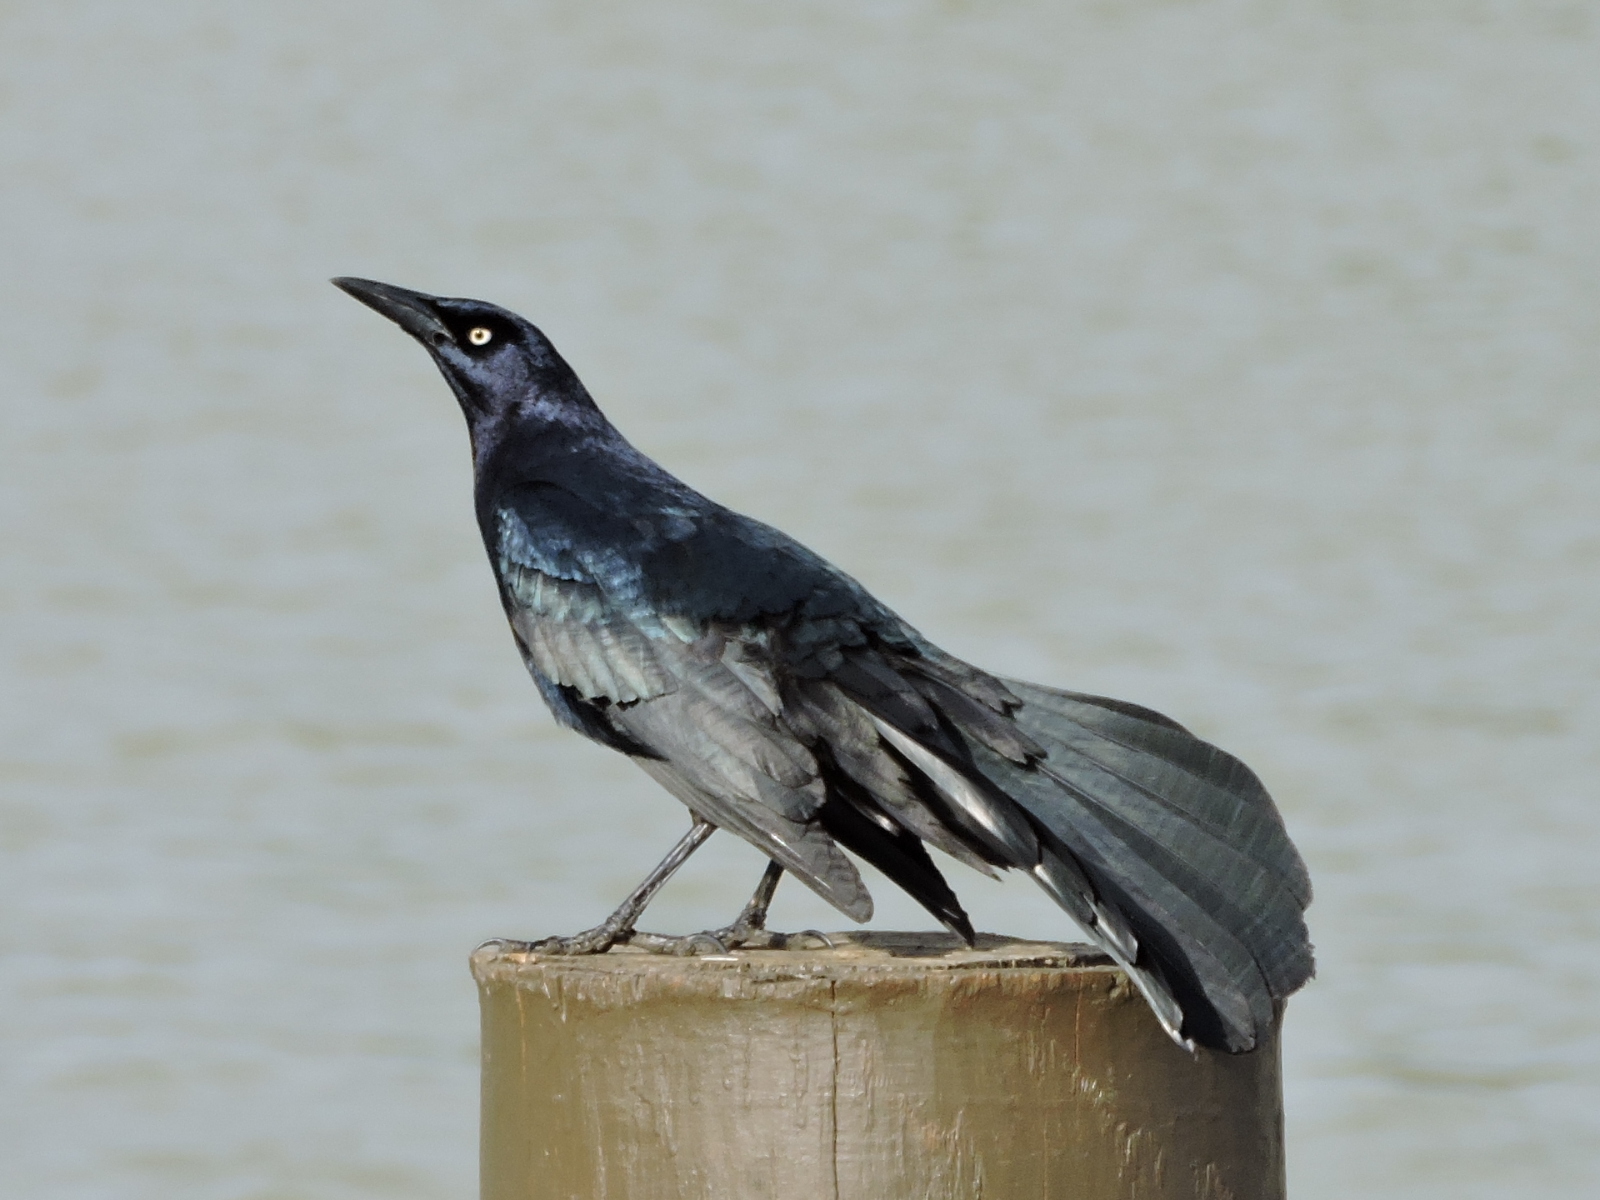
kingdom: Animalia
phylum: Chordata
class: Aves
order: Passeriformes
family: Icteridae
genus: Quiscalus
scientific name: Quiscalus mexicanus
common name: Great-tailed grackle
